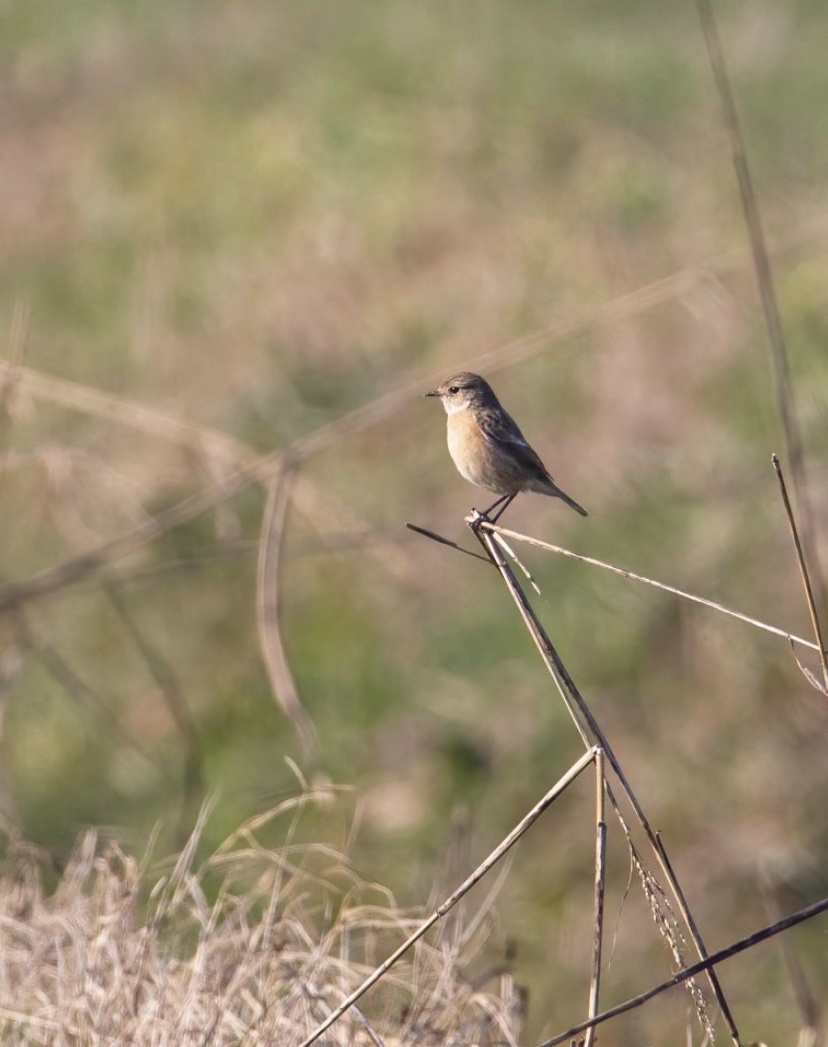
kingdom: Animalia
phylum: Chordata
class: Aves
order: Passeriformes
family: Muscicapidae
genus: Saxicola
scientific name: Saxicola rubicola
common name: European stonechat
